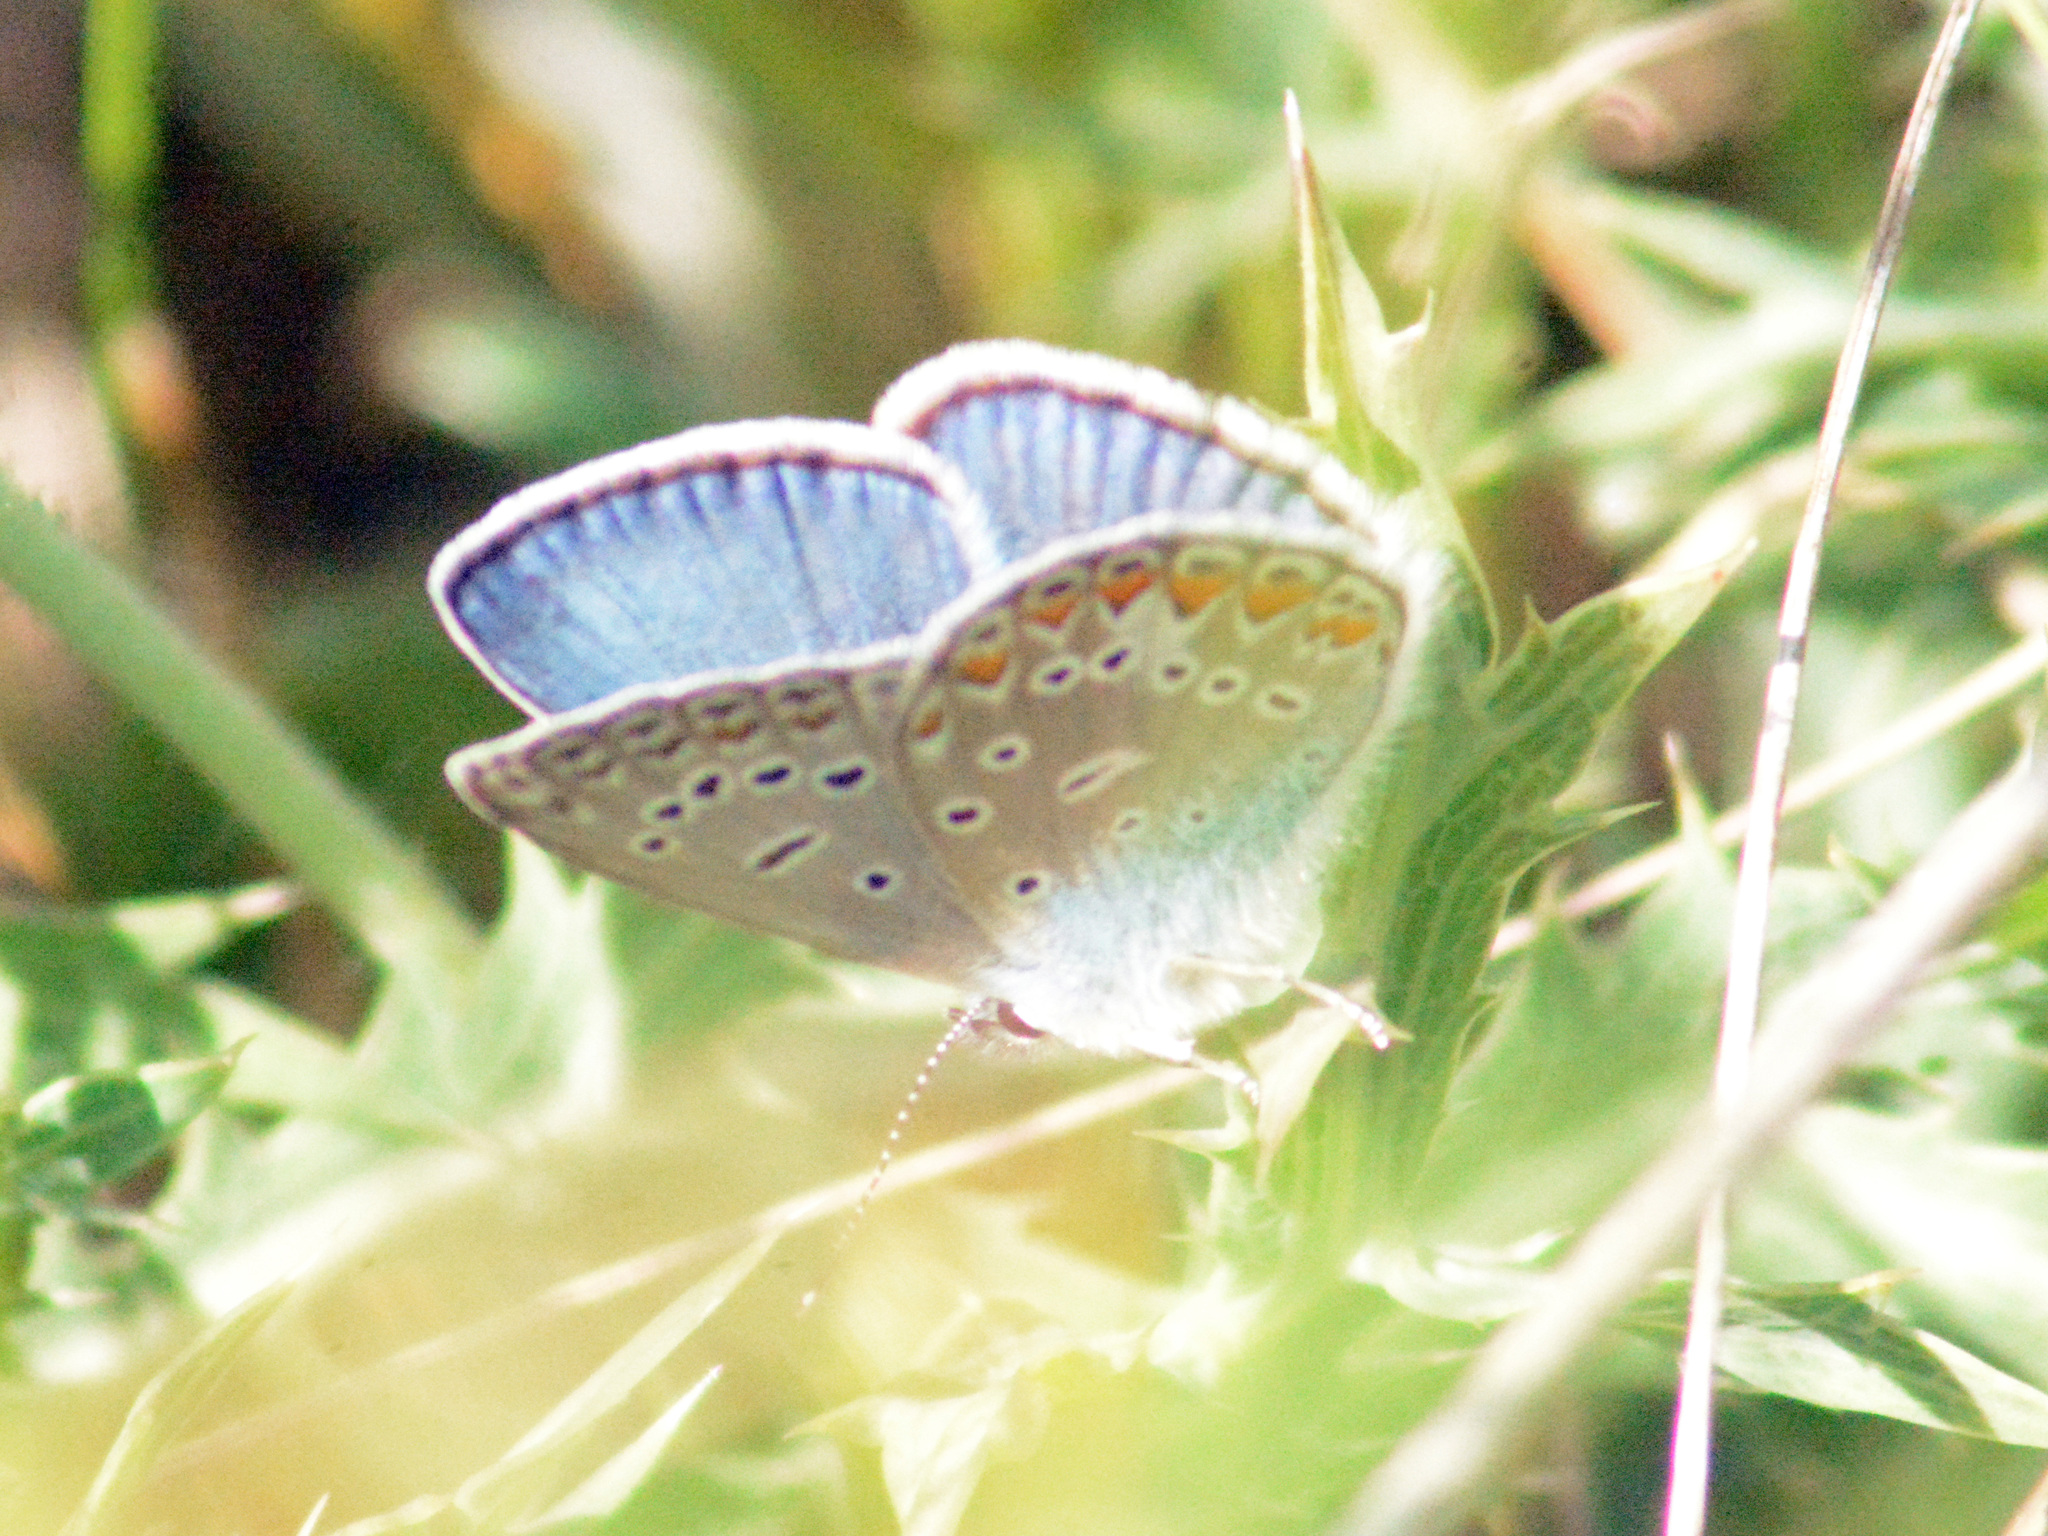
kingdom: Animalia
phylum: Arthropoda
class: Insecta
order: Lepidoptera
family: Lycaenidae
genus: Polyommatus
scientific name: Polyommatus icarus
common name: Common blue
